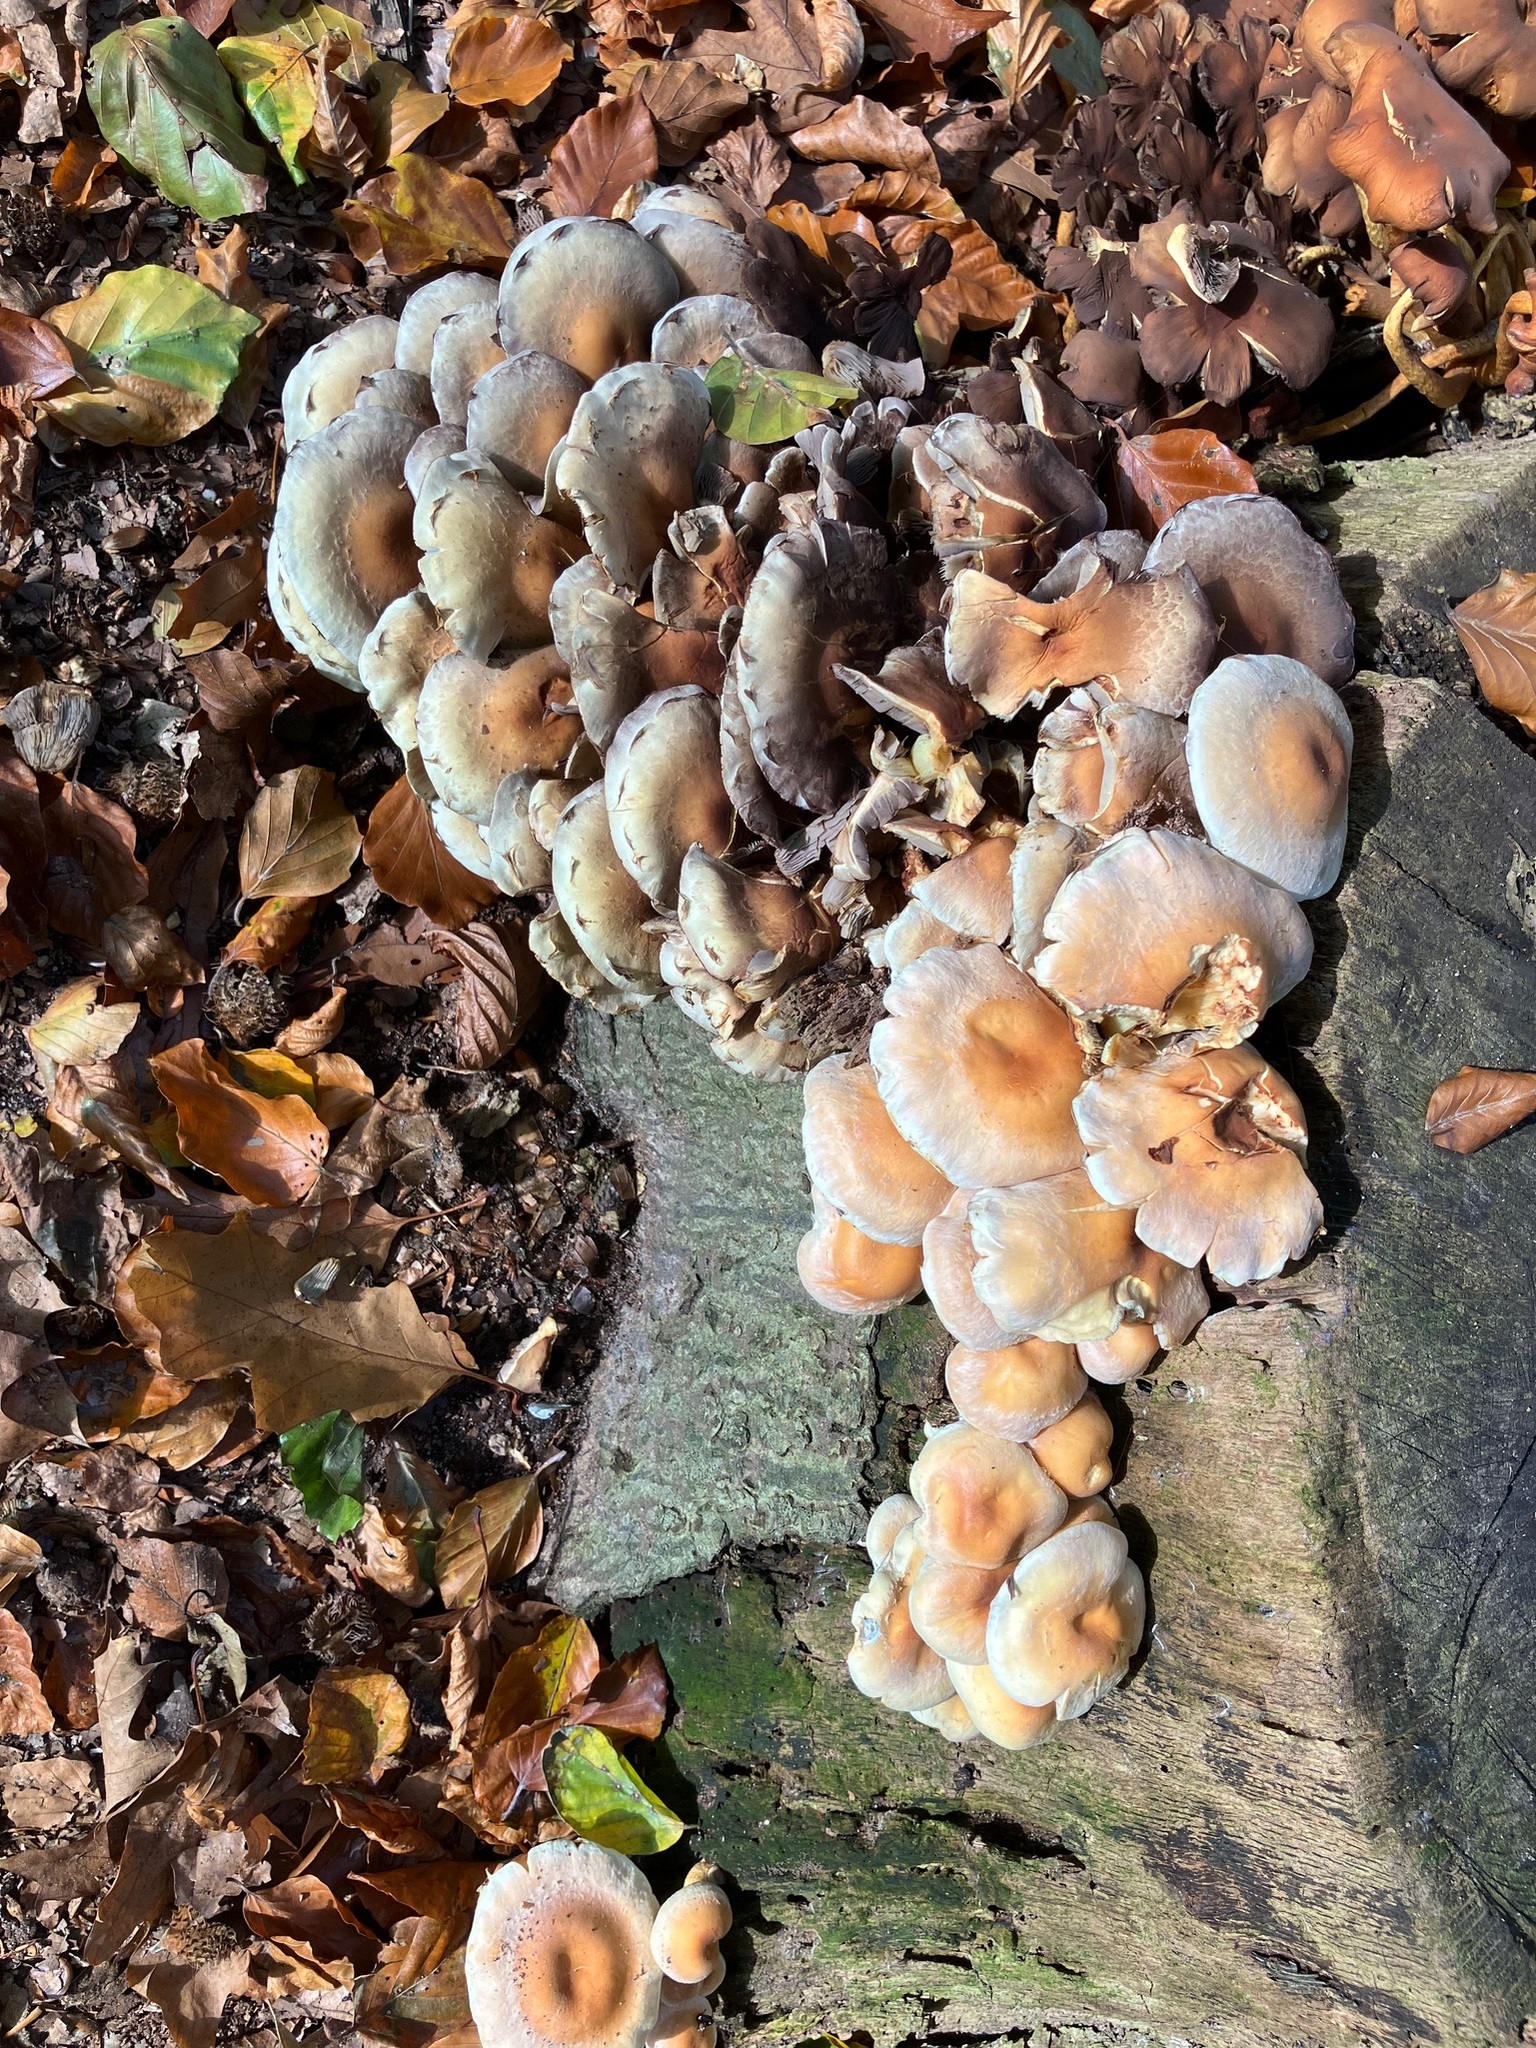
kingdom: Fungi
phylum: Basidiomycota
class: Agaricomycetes
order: Agaricales
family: Strophariaceae
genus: Hypholoma
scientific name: Hypholoma fasciculare
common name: Sulphur tuft
